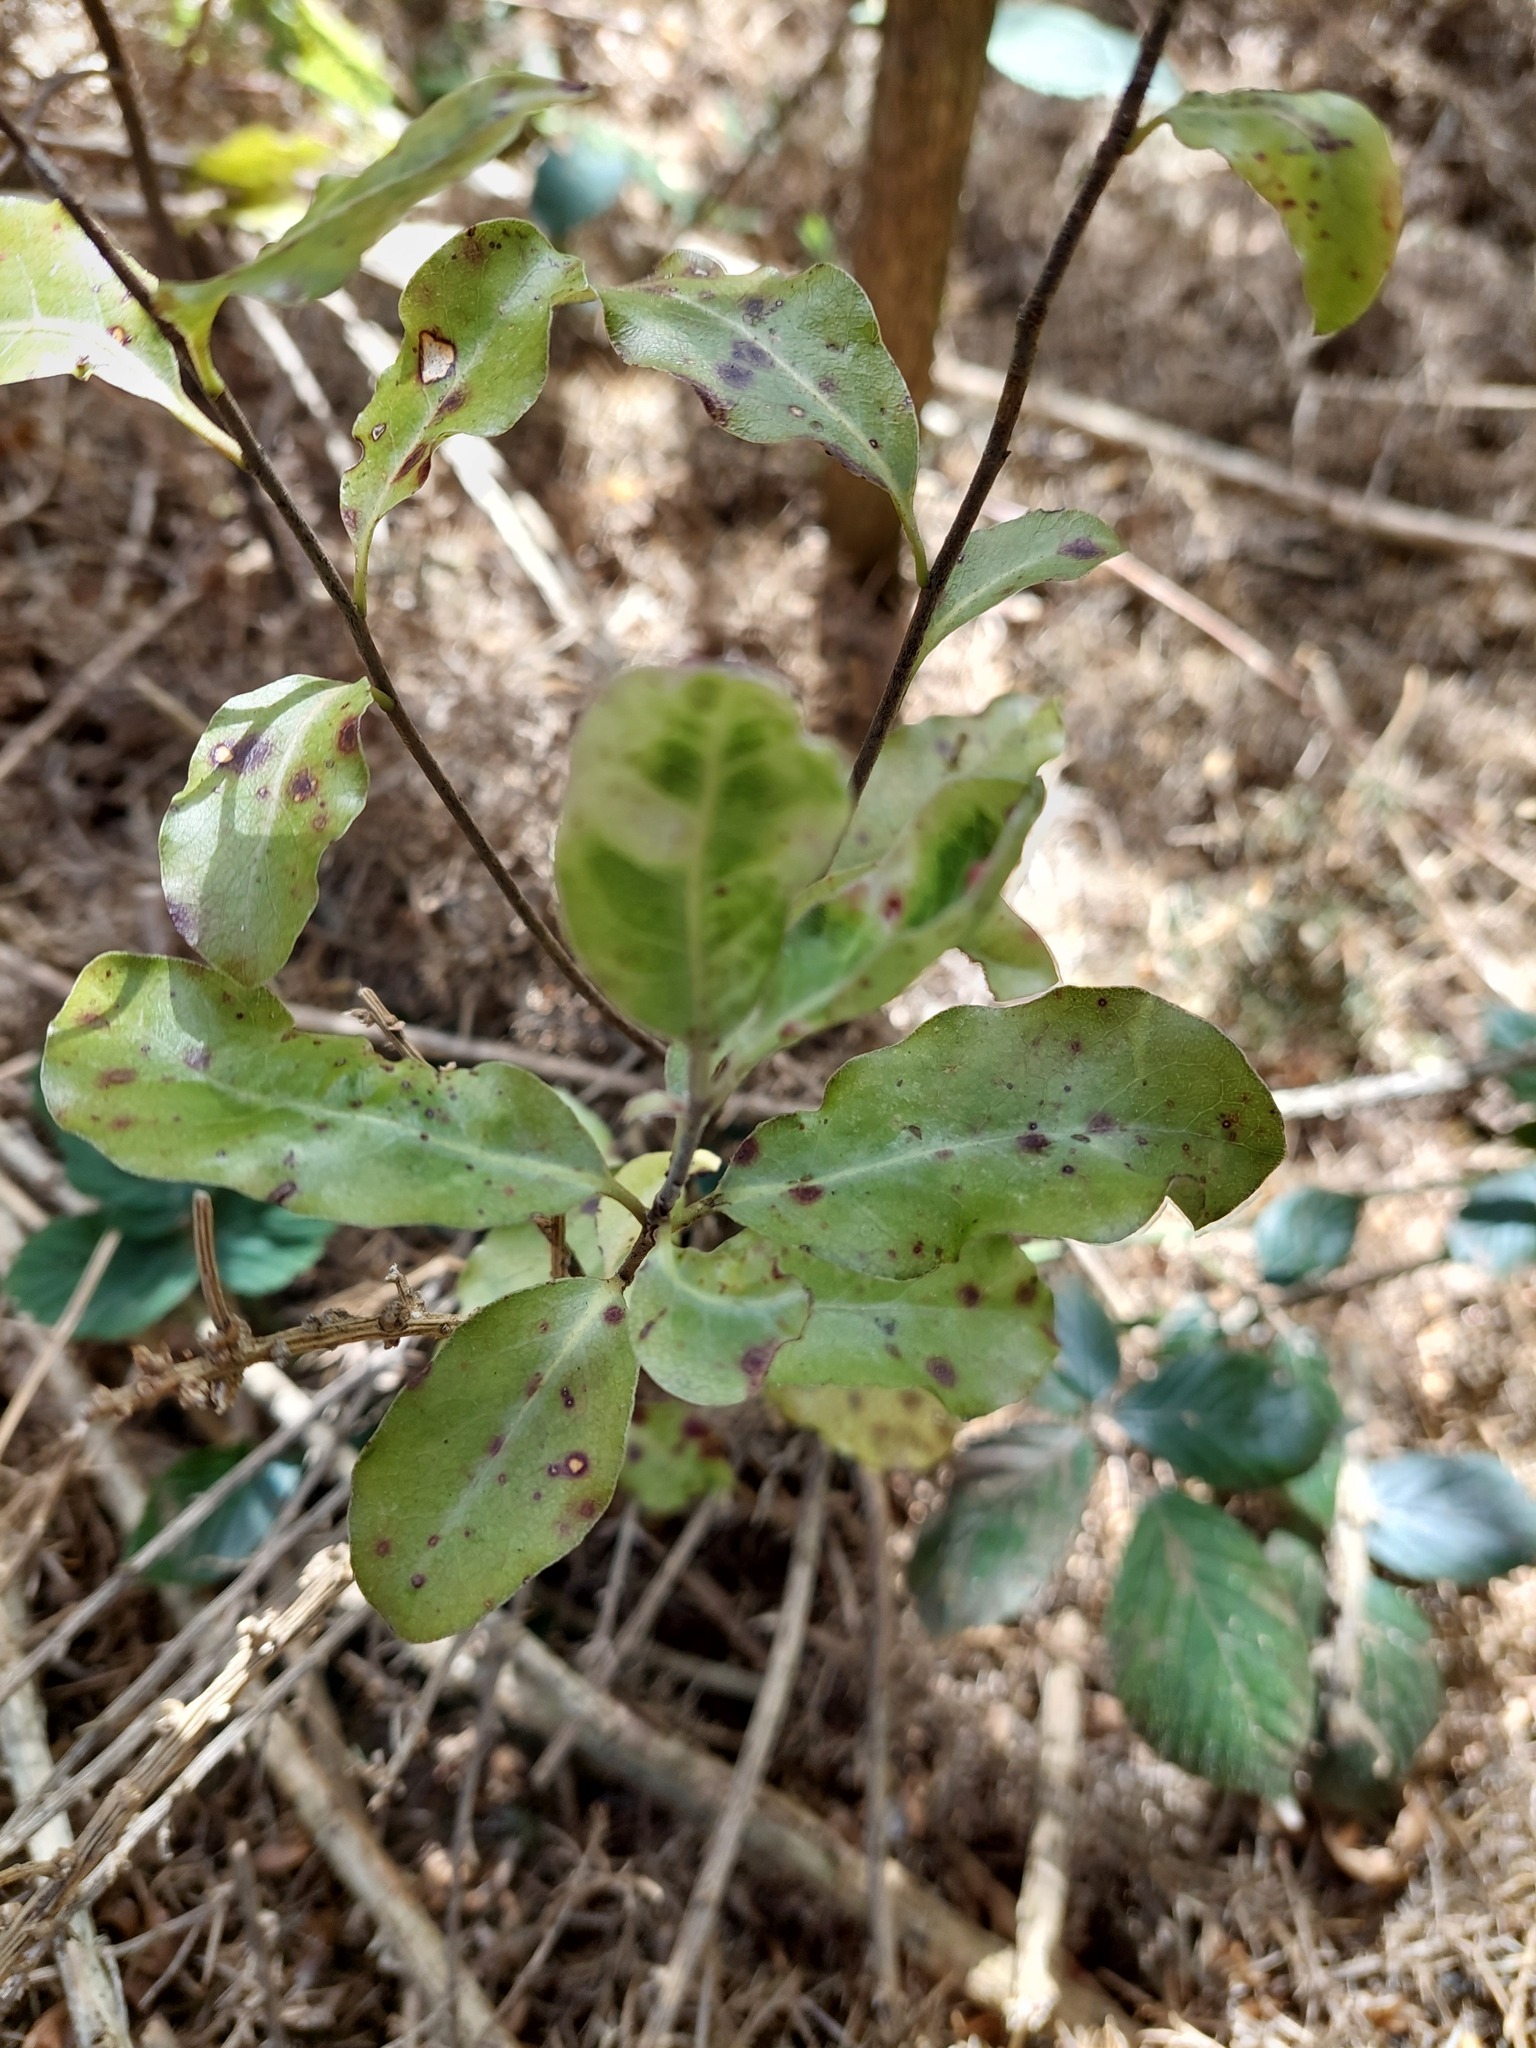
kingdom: Plantae
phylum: Tracheophyta
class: Magnoliopsida
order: Apiales
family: Pittosporaceae
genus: Pittosporum
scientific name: Pittosporum tenuifolium
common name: Kohuhu
